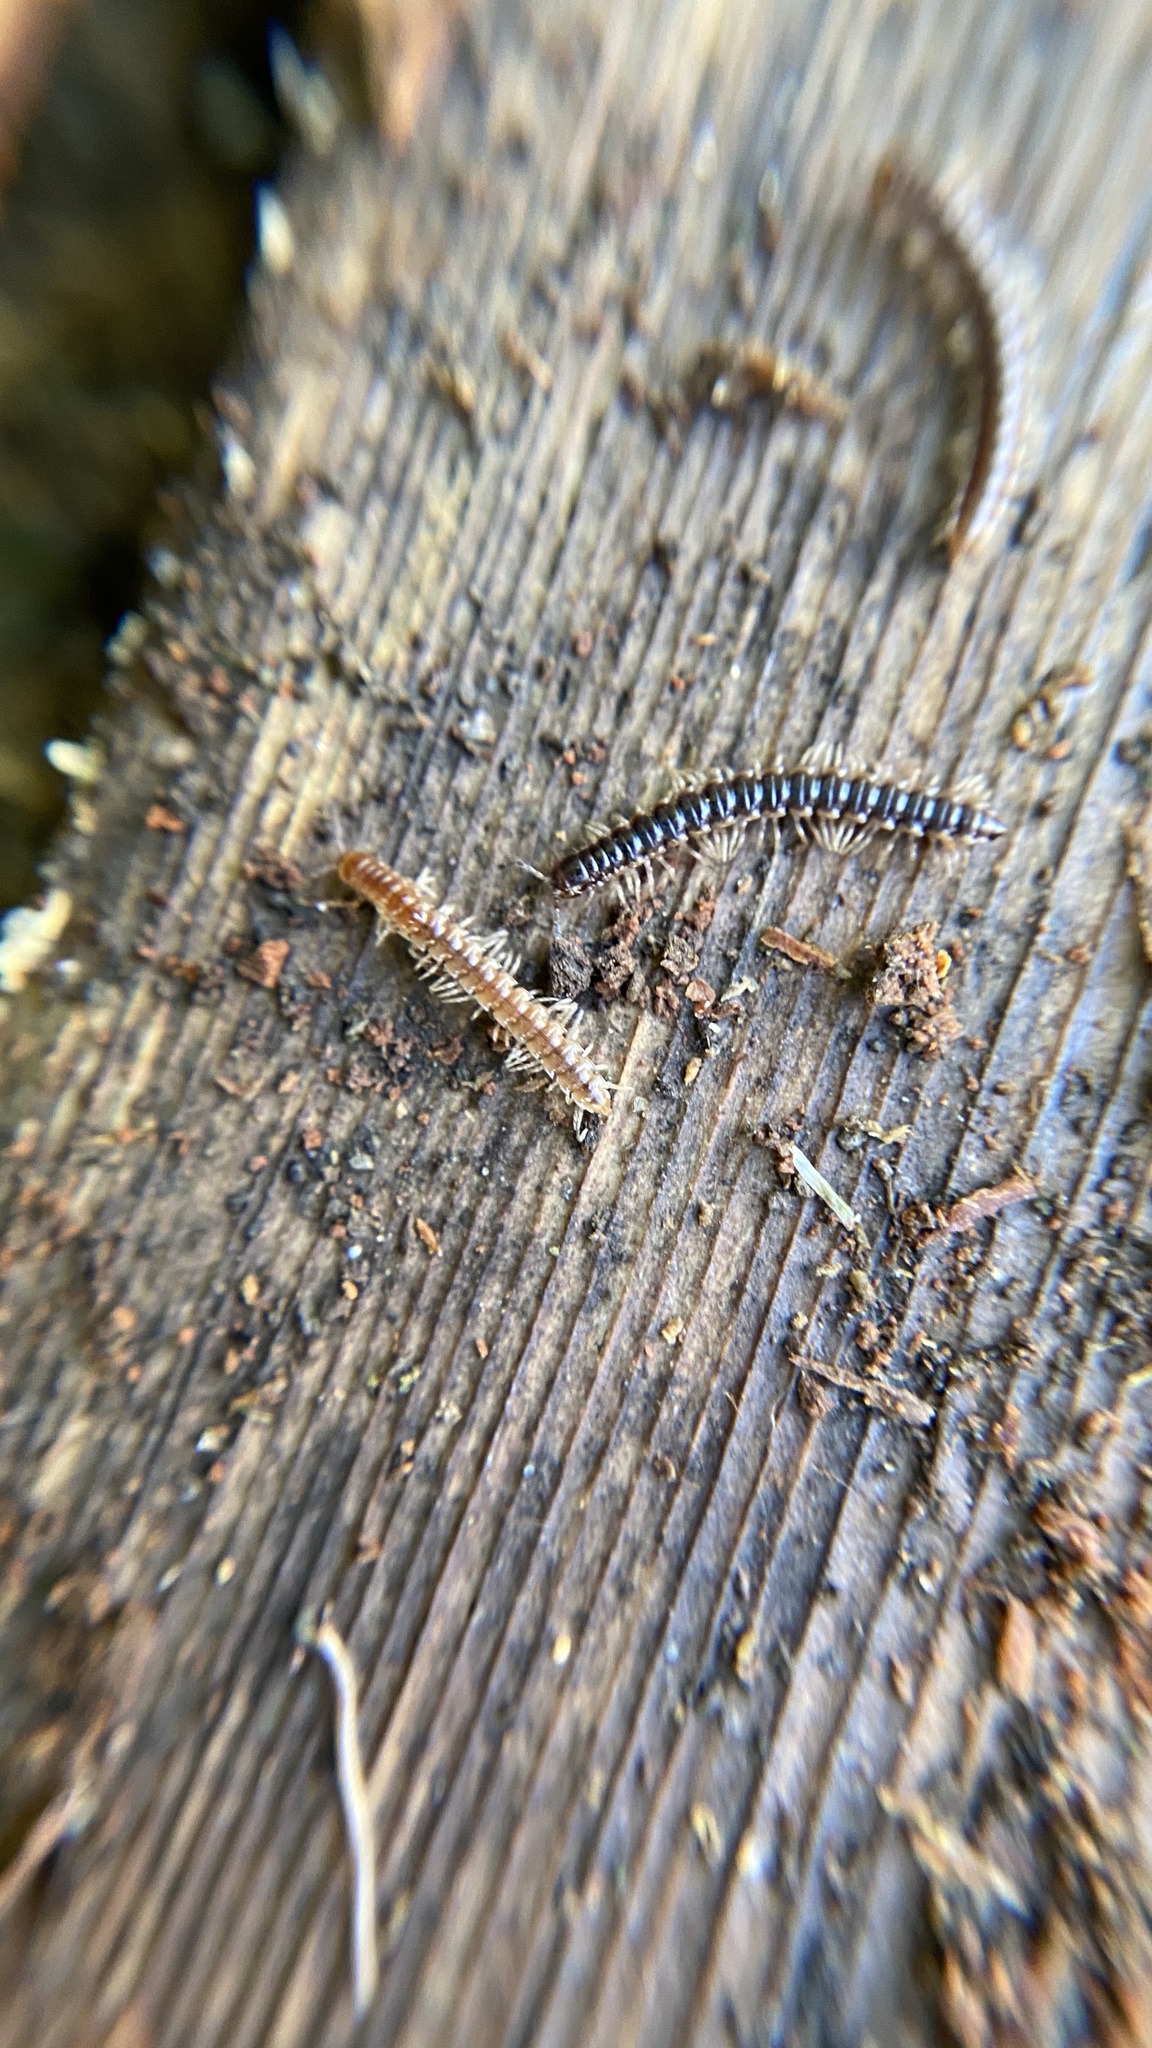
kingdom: Animalia
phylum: Arthropoda
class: Diplopoda
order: Polydesmida
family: Paradoxosomatidae
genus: Oxidus
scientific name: Oxidus gracilis
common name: Greenhouse millipede
